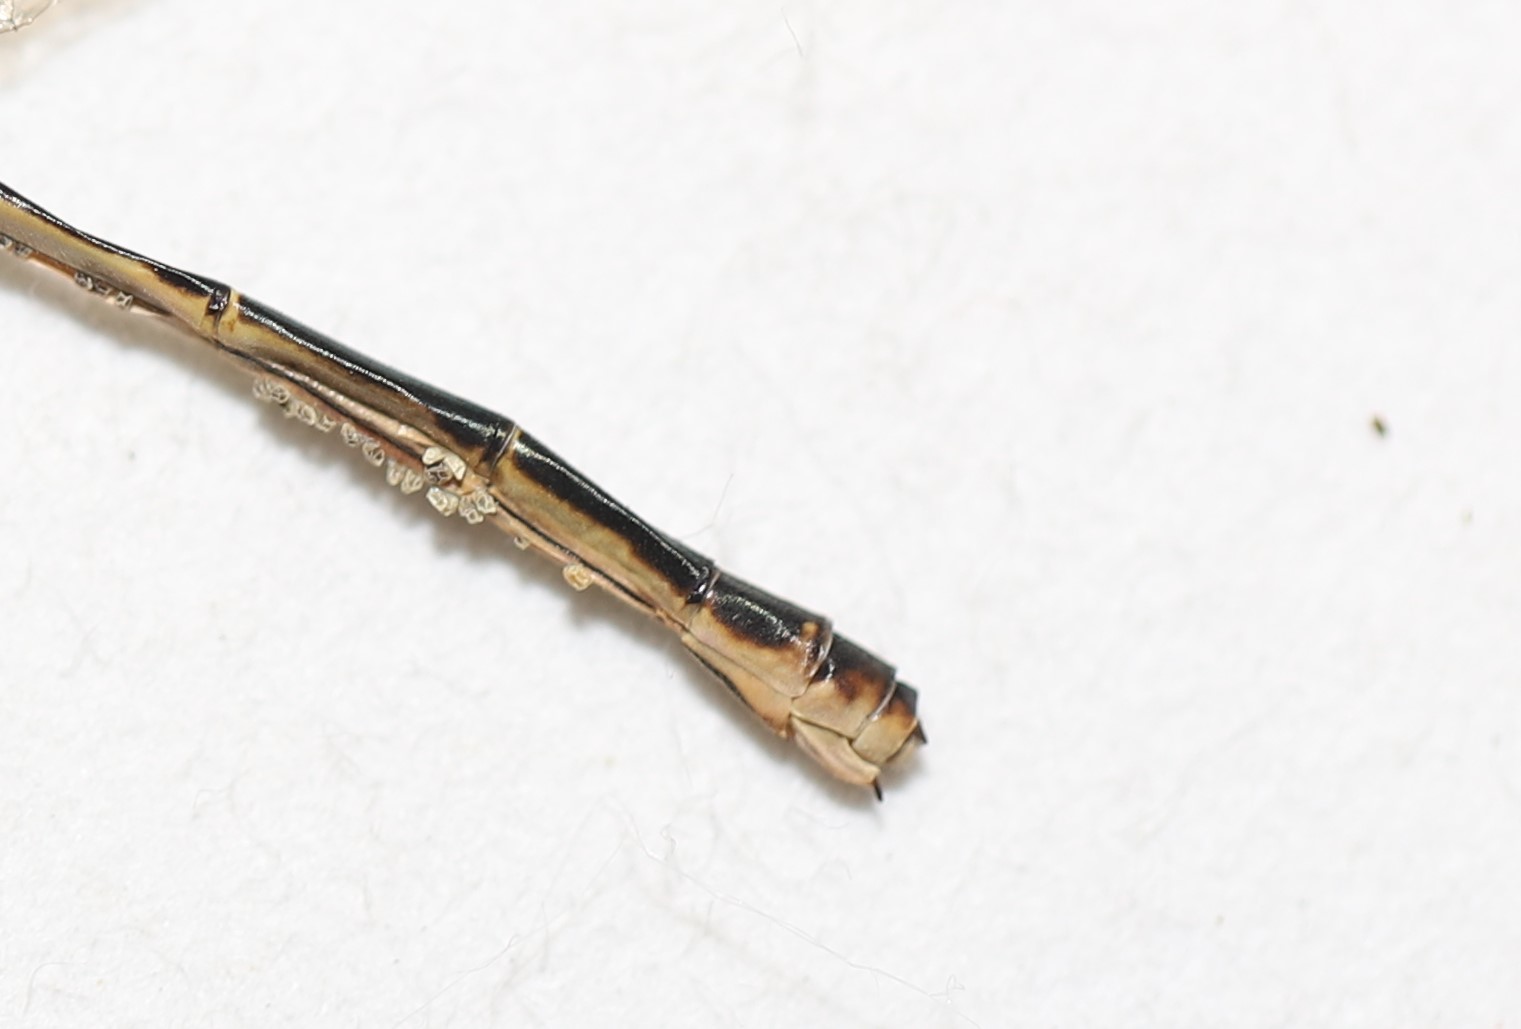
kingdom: Animalia
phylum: Arthropoda
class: Insecta
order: Odonata
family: Coenagrionidae
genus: Ischnura
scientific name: Ischnura verticalis
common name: Eastern forktail
